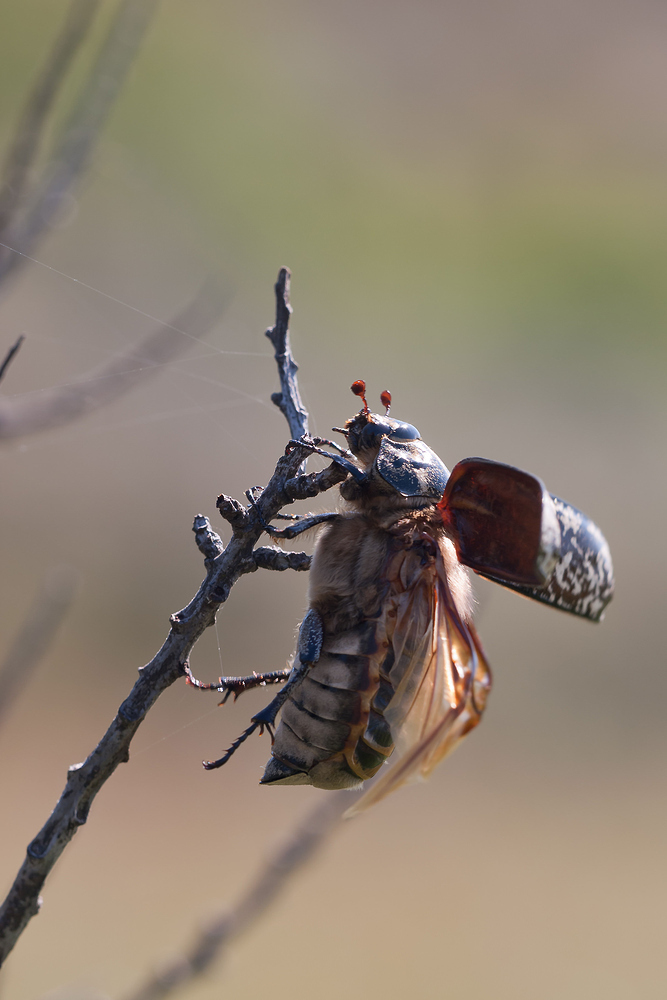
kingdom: Animalia
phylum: Arthropoda
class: Insecta
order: Coleoptera
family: Scarabaeidae
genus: Polyphylla
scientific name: Polyphylla fullo
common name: Pine chafer
